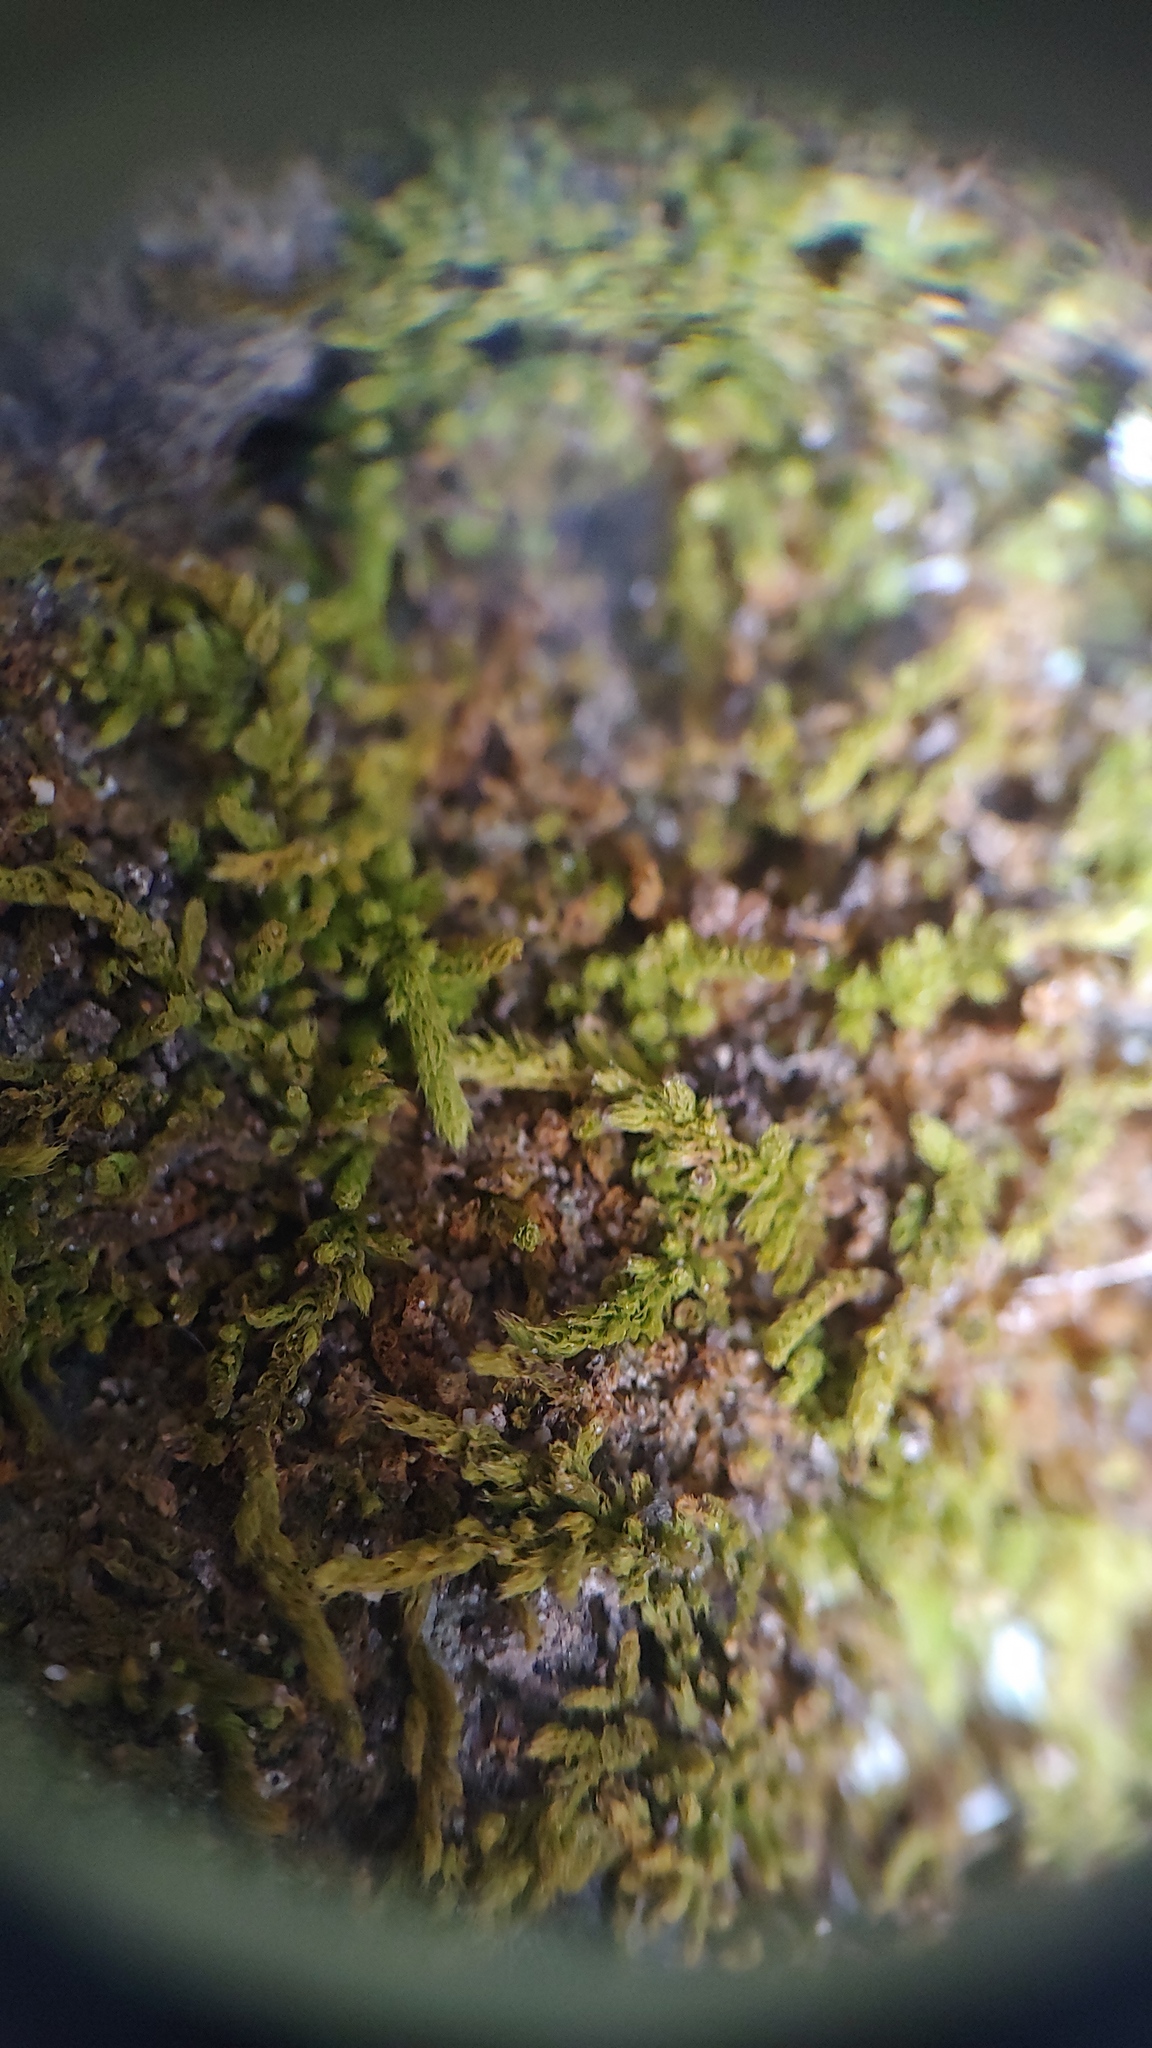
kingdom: Plantae
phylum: Bryophyta
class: Bryopsida
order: Hypnales
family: Brachytheciaceae
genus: Claopodium
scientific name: Claopodium rostratum
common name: Yellow yarn moss
